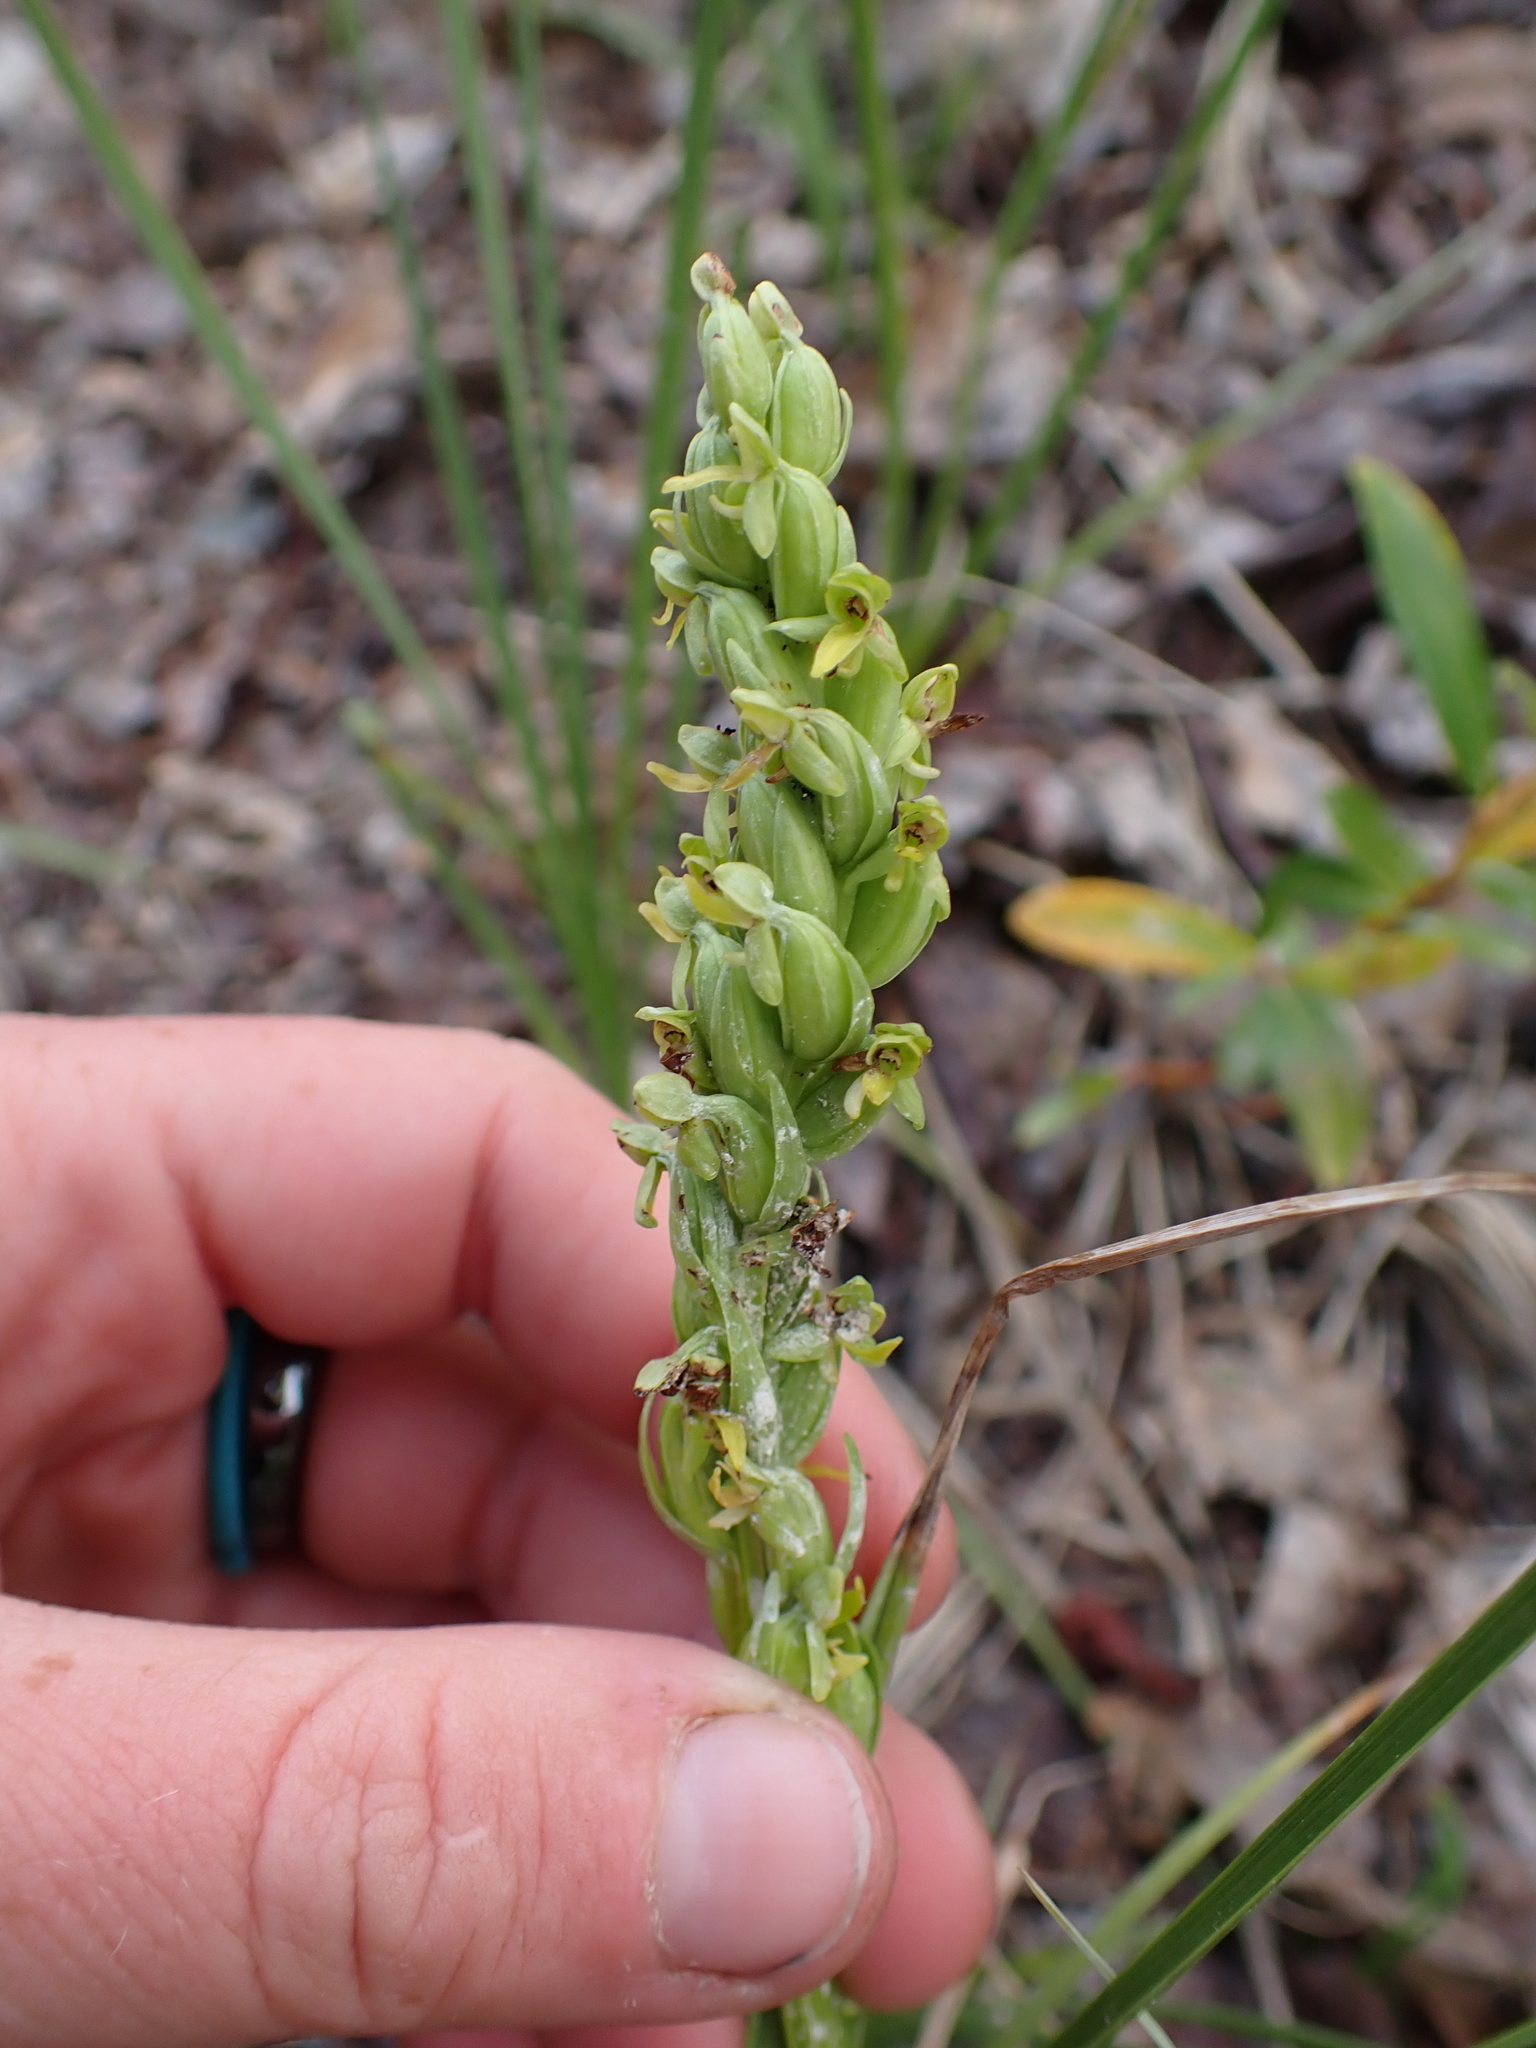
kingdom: Plantae
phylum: Tracheophyta
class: Liliopsida
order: Asparagales
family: Orchidaceae
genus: Platanthera
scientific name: Platanthera aquilonis
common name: Northern green orchid
